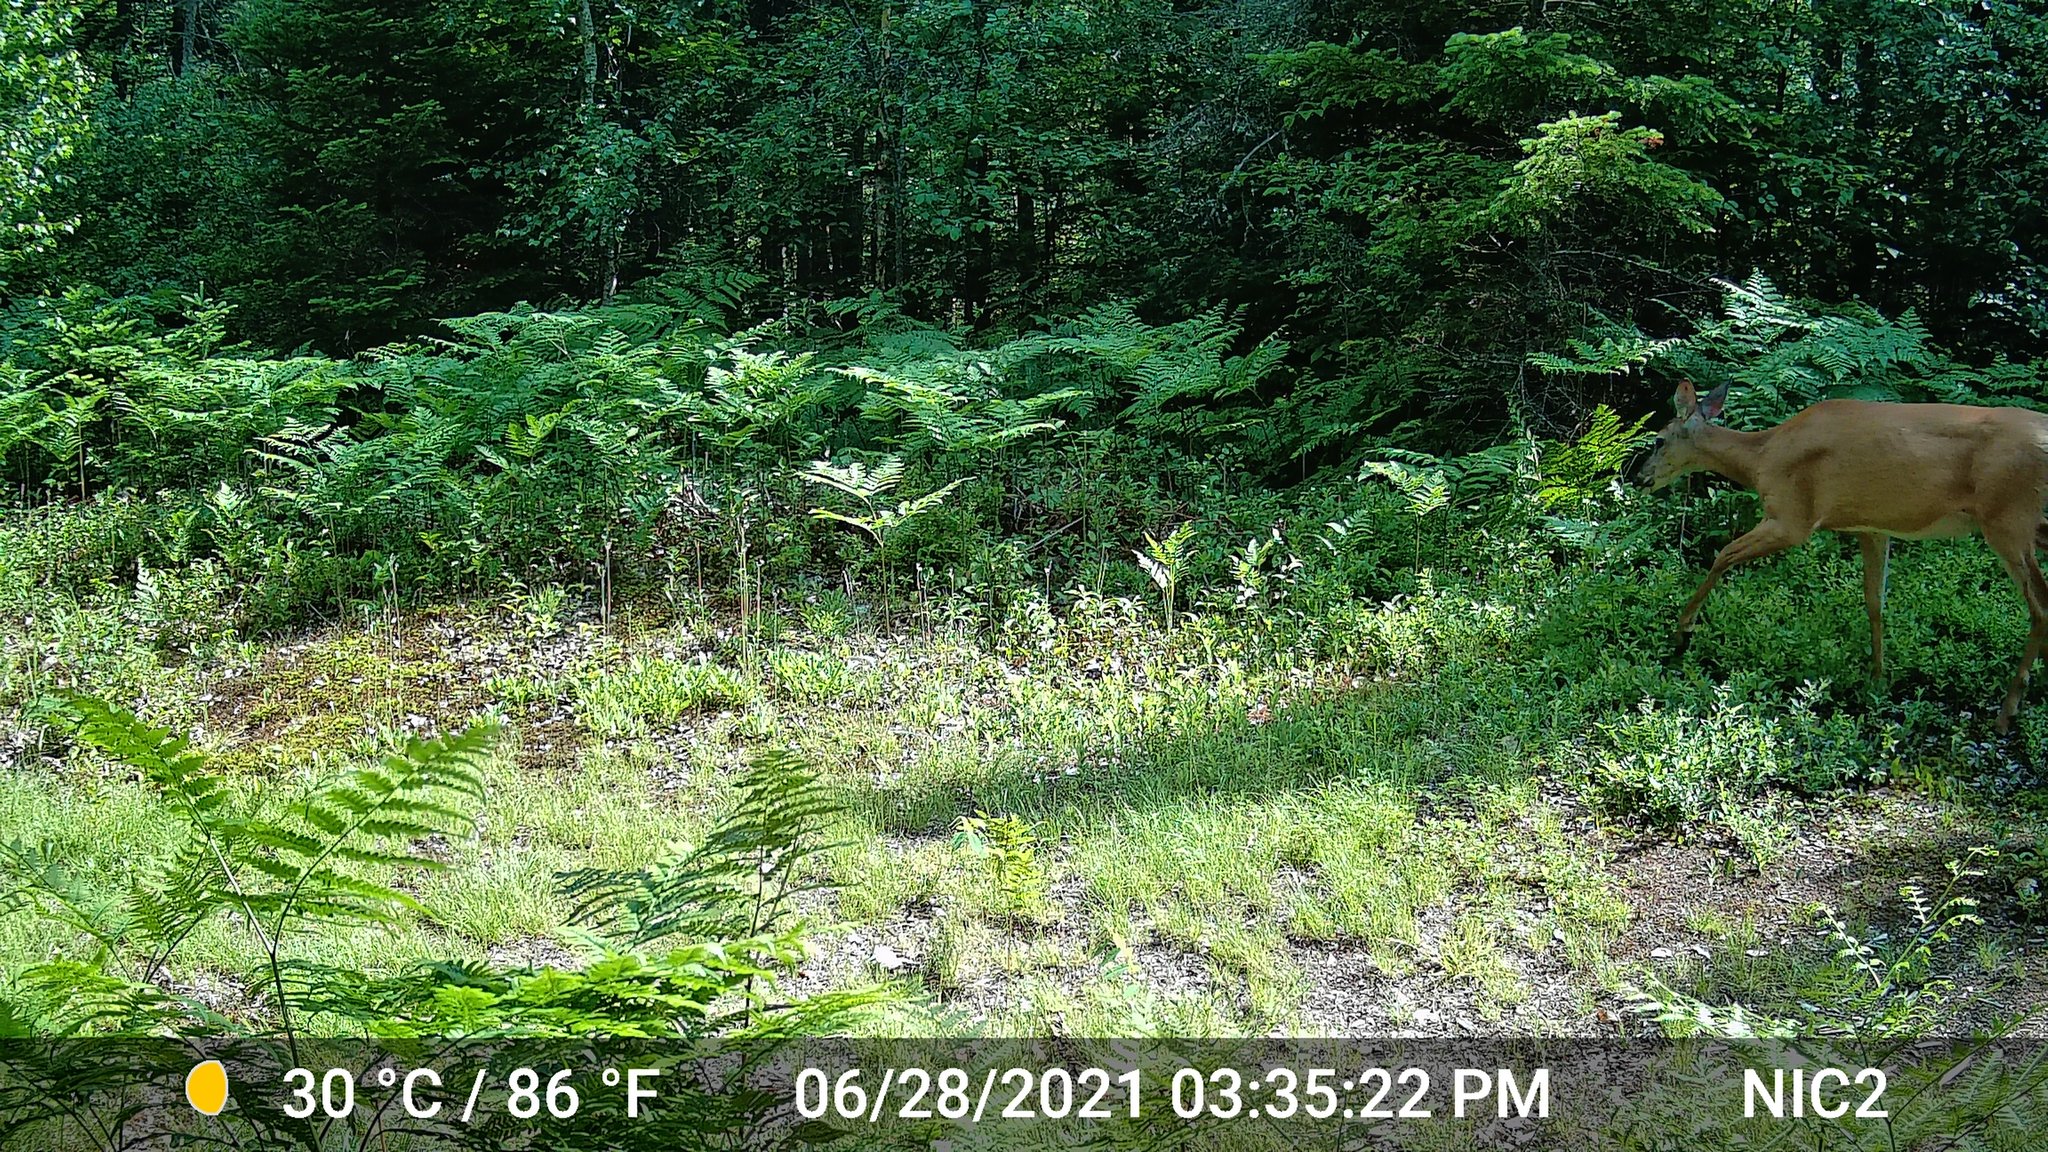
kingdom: Animalia
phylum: Chordata
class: Mammalia
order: Artiodactyla
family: Cervidae
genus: Odocoileus
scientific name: Odocoileus virginianus
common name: White-tailed deer
